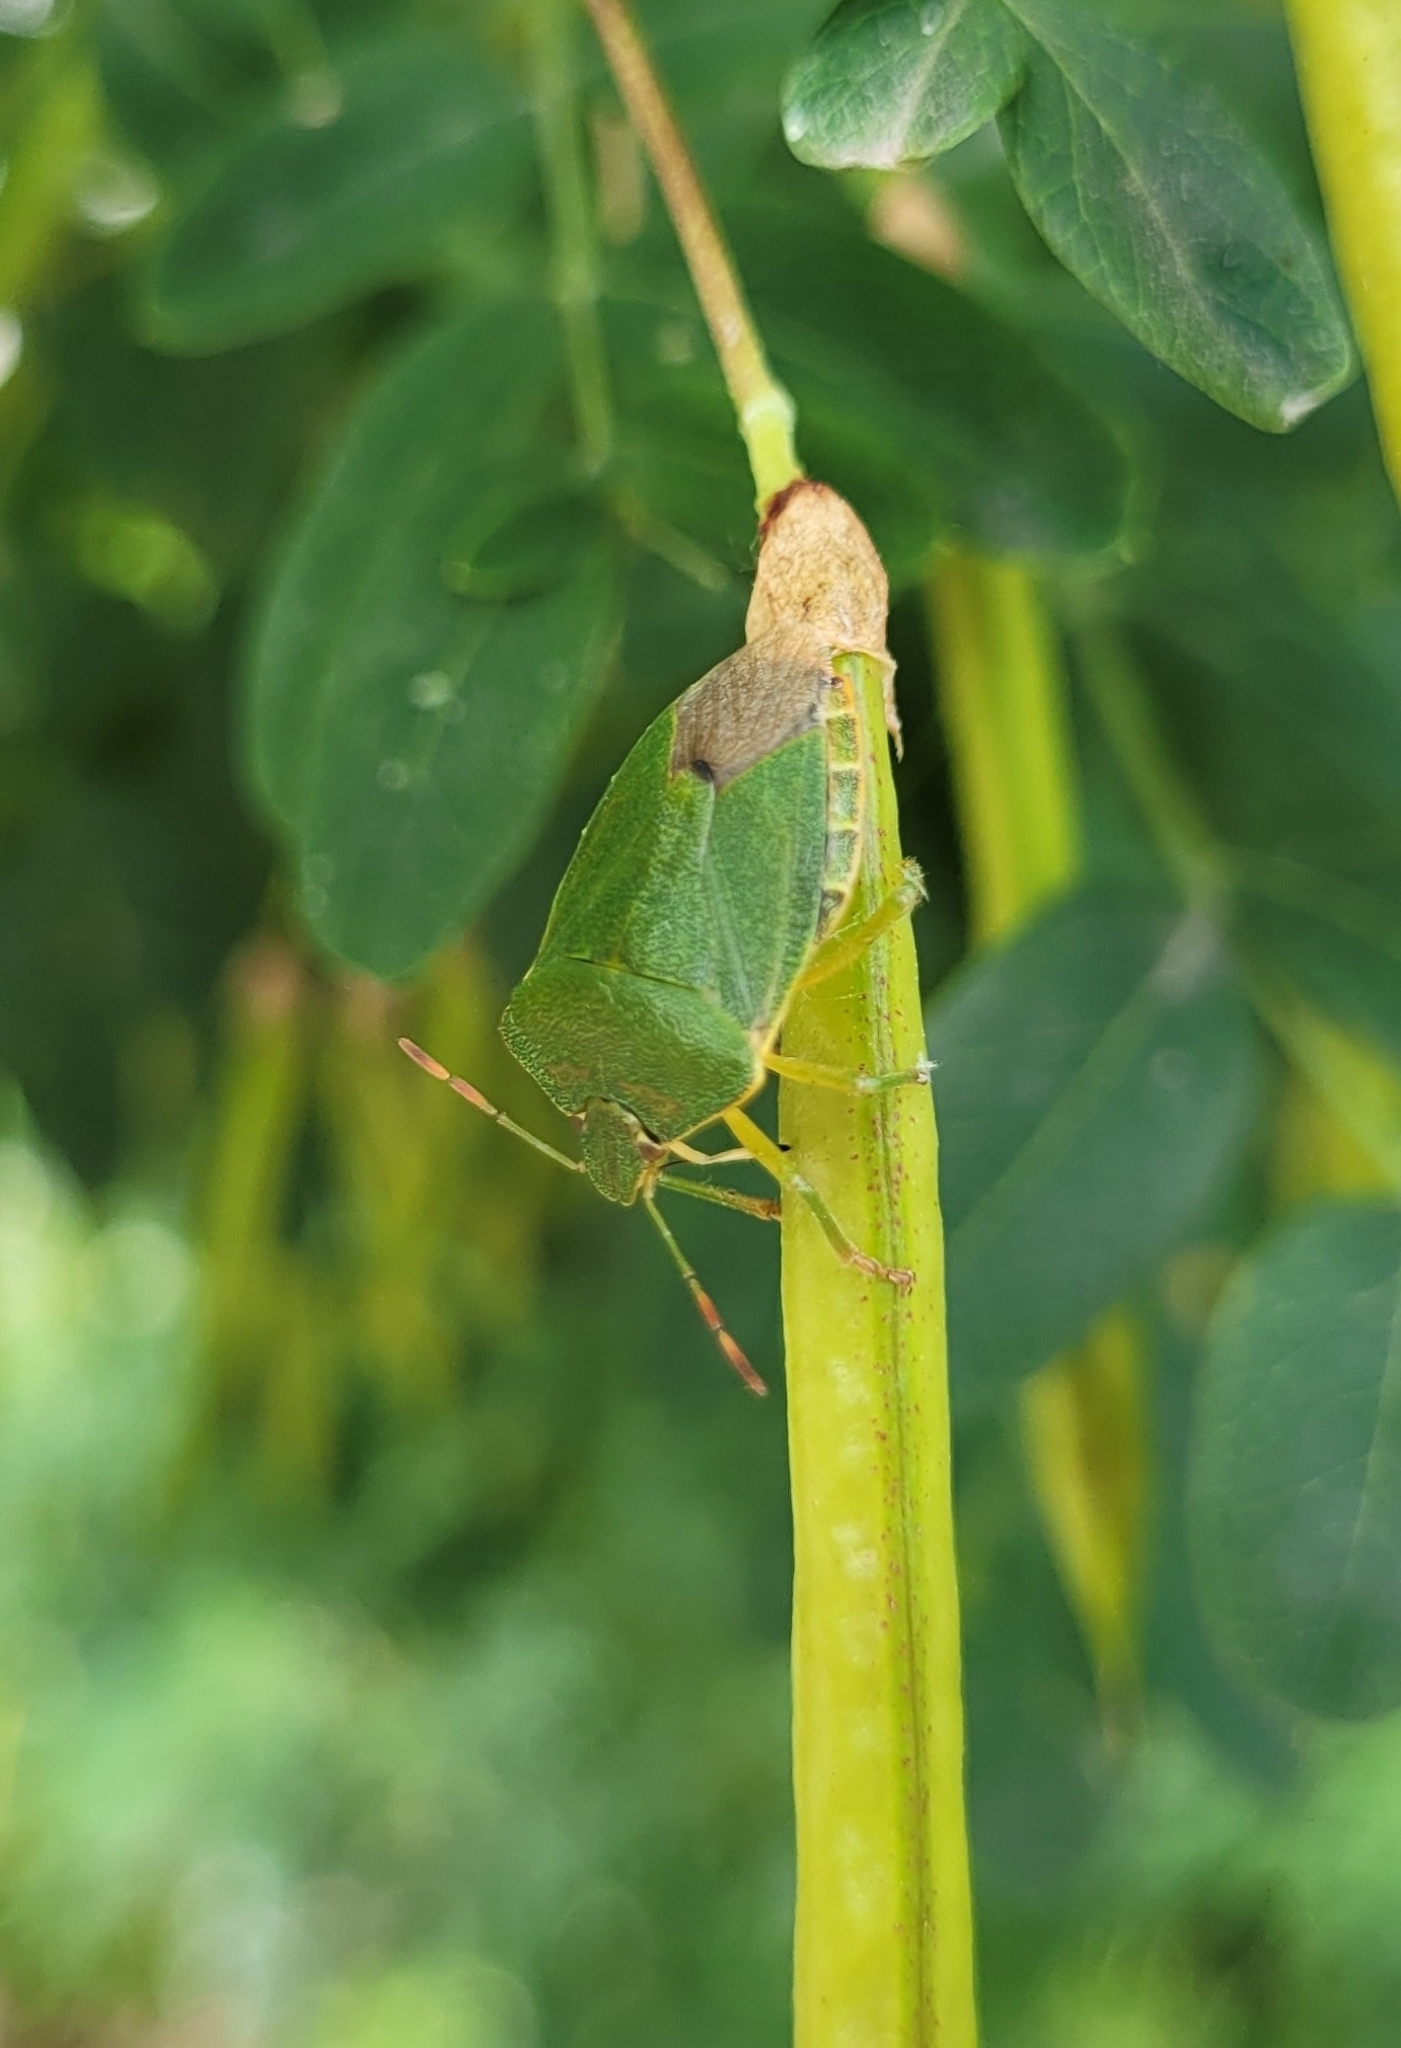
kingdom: Animalia
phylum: Arthropoda
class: Insecta
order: Hemiptera
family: Pentatomidae
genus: Palomena
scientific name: Palomena prasina
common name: Green shieldbug
